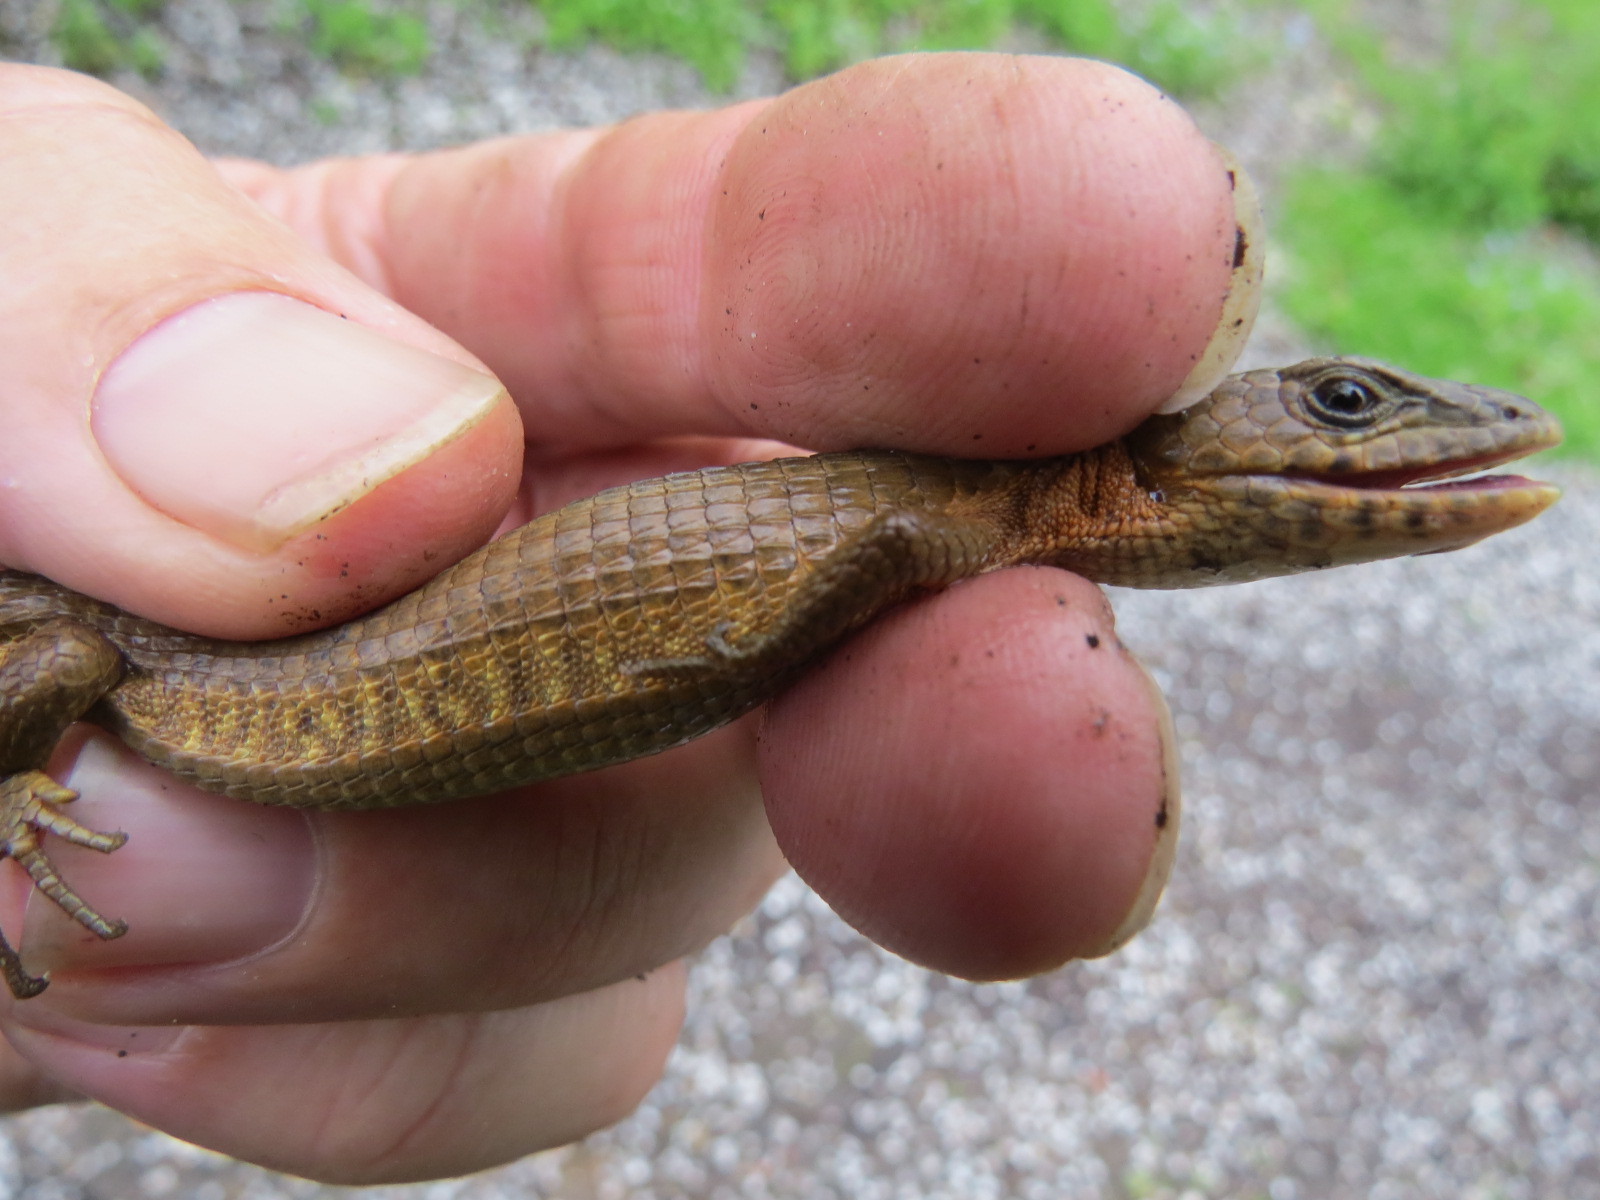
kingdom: Animalia
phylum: Chordata
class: Squamata
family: Anguidae
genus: Elgaria
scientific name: Elgaria coerulea
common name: Northern alligator lizard
